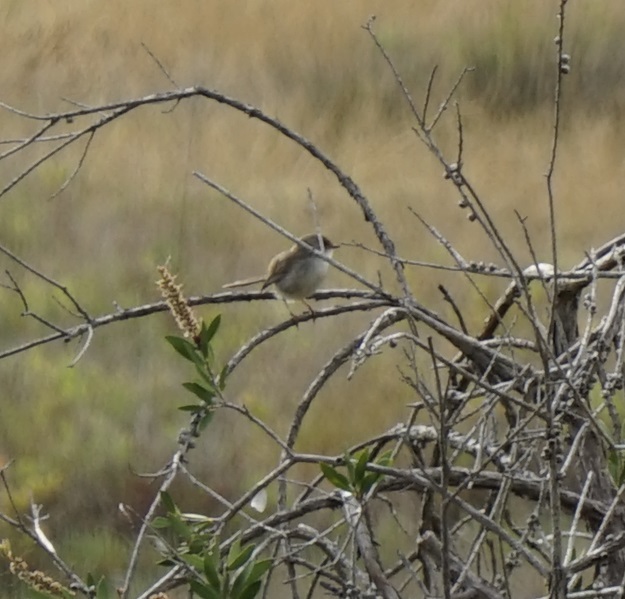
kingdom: Animalia
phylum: Chordata
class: Aves
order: Passeriformes
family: Maluridae
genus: Malurus
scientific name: Malurus cyaneus
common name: Superb fairywren
